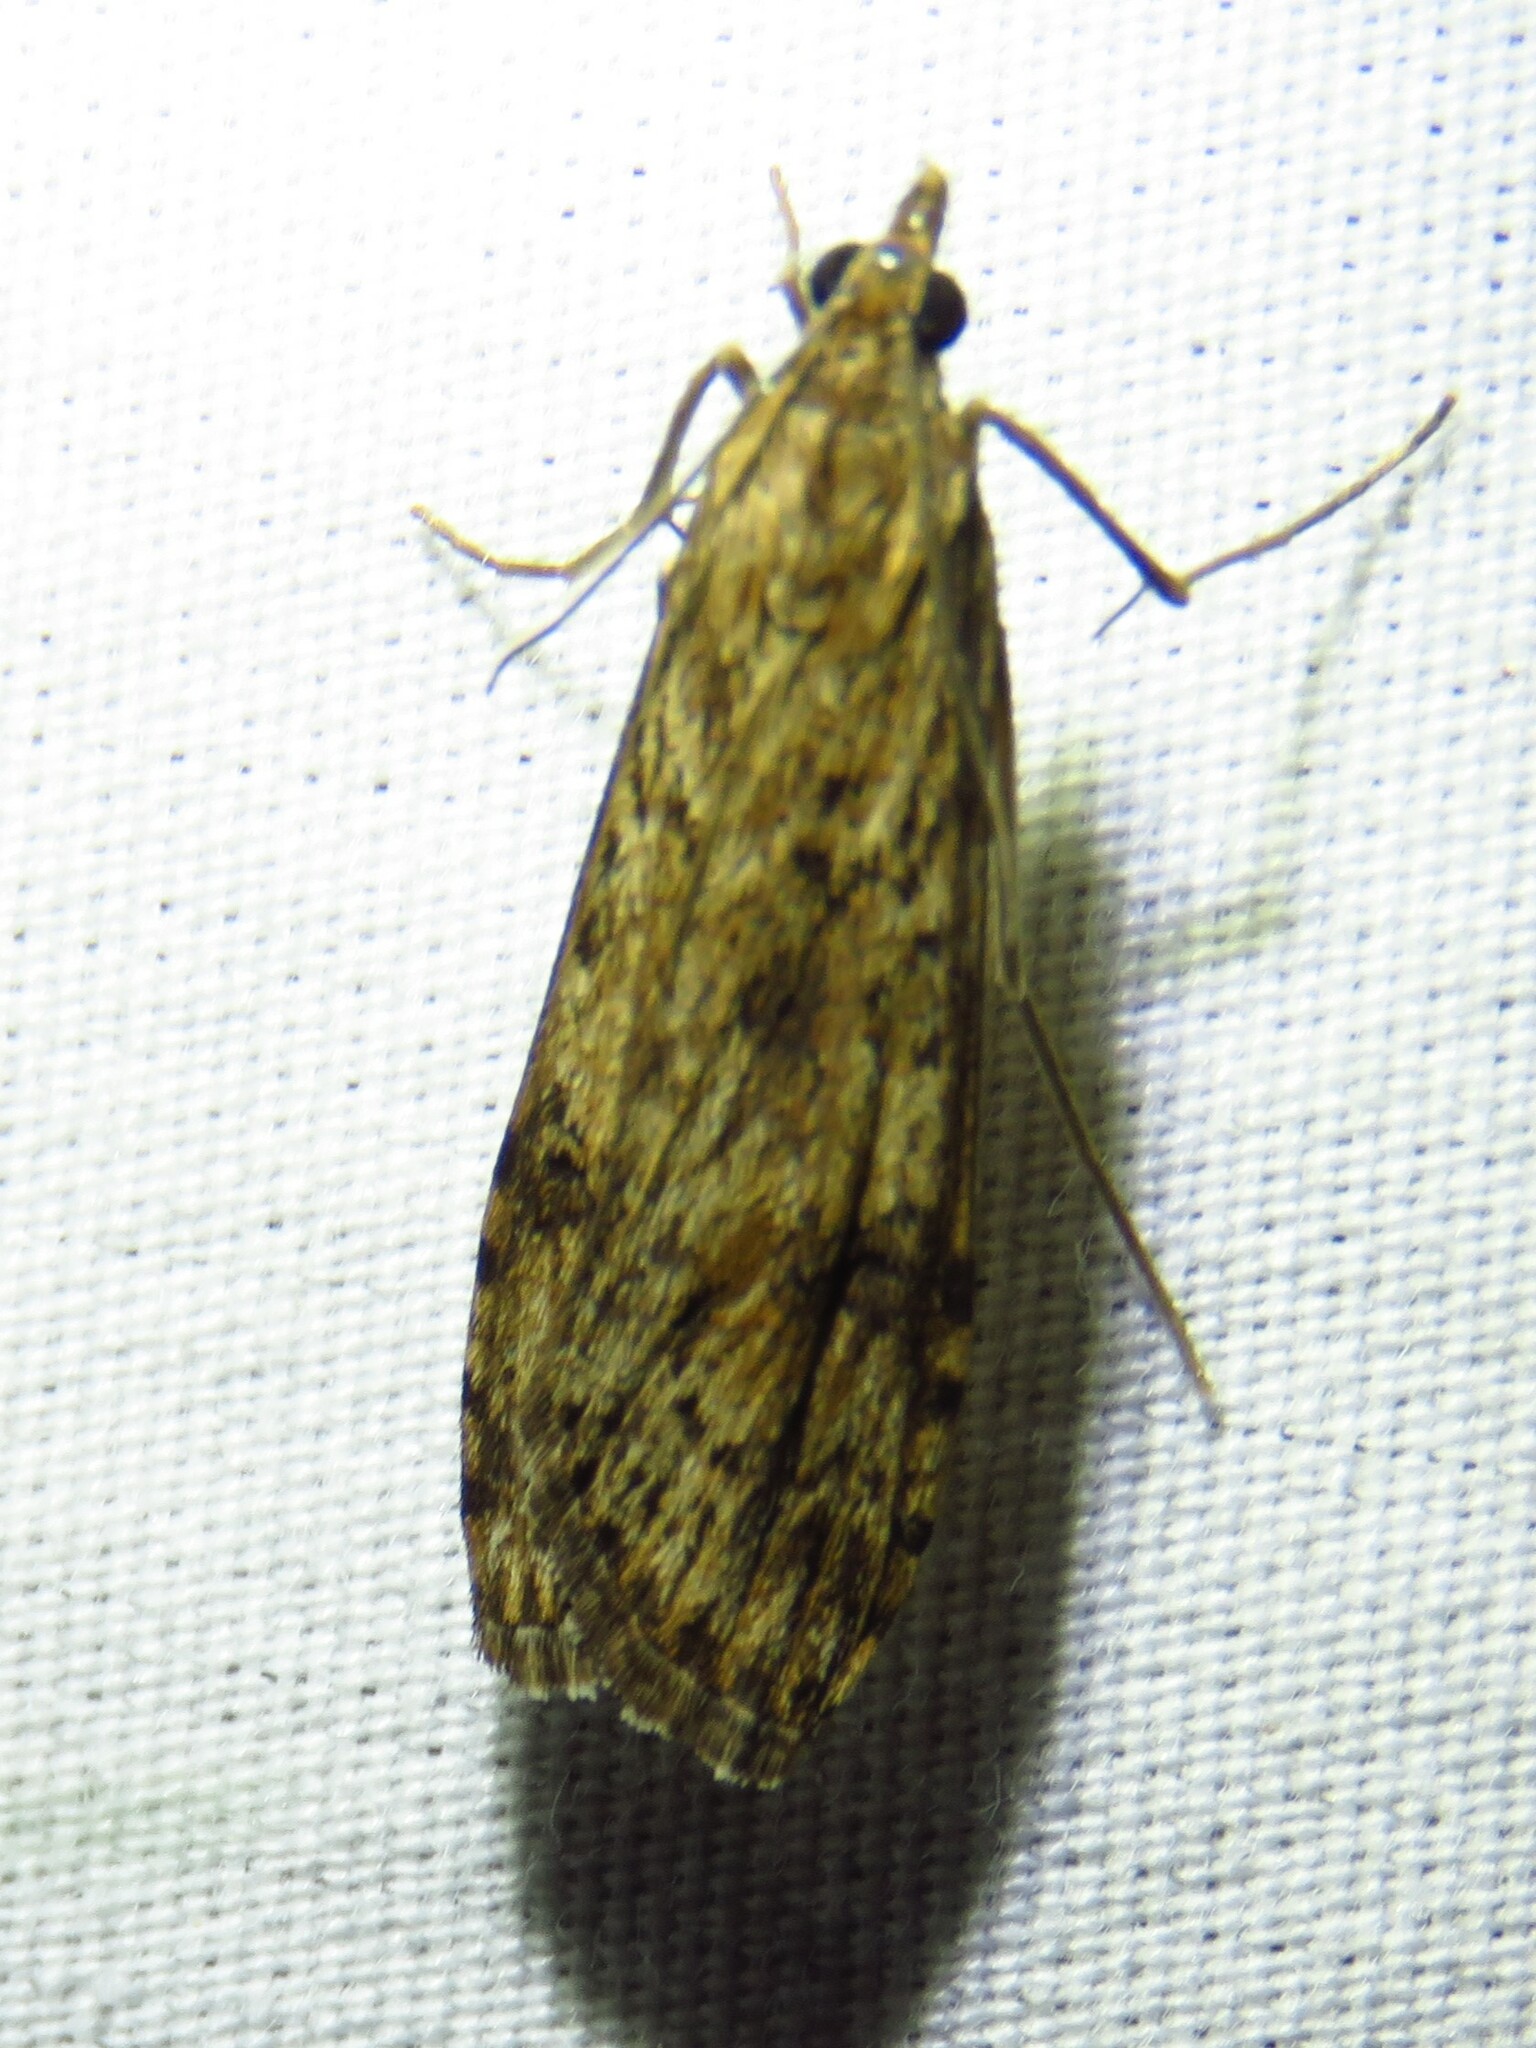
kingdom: Animalia
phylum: Arthropoda
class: Insecta
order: Lepidoptera
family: Crambidae
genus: Nomophila
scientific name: Nomophila nearctica
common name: American rush veneer
